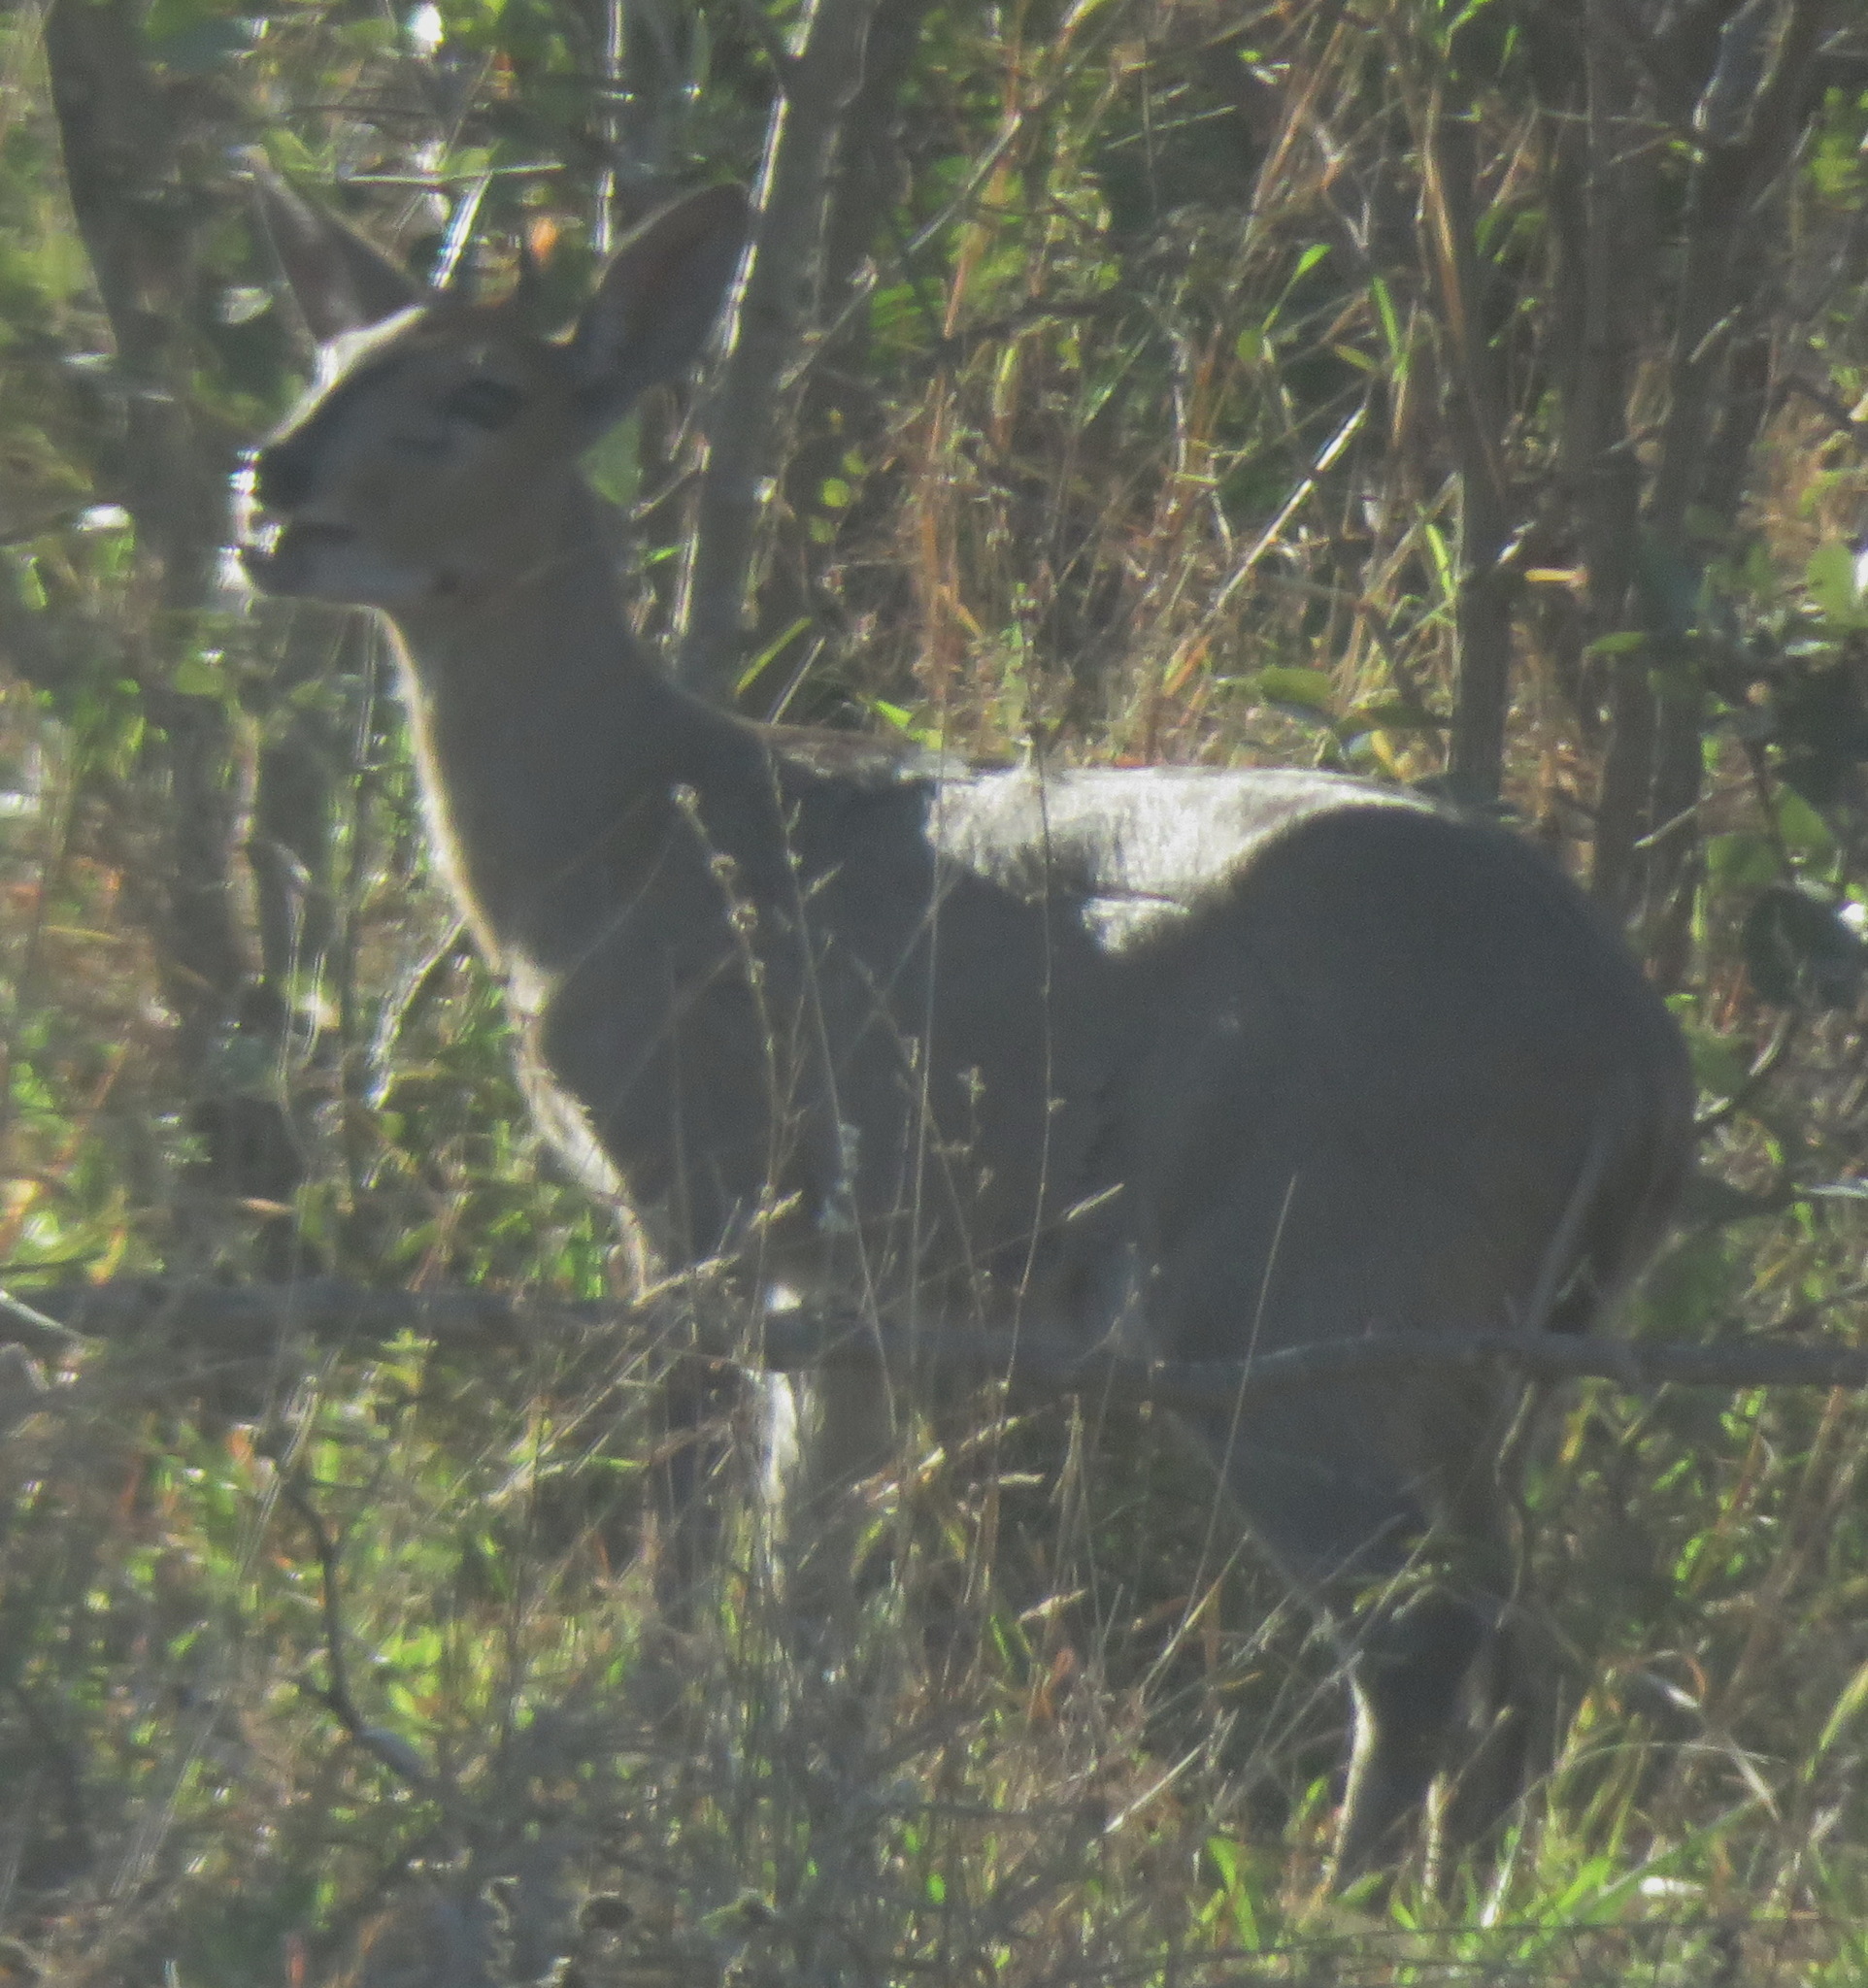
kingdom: Animalia
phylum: Chordata
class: Mammalia
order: Artiodactyla
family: Bovidae
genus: Sylvicapra
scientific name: Sylvicapra grimmia
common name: Bush duiker
